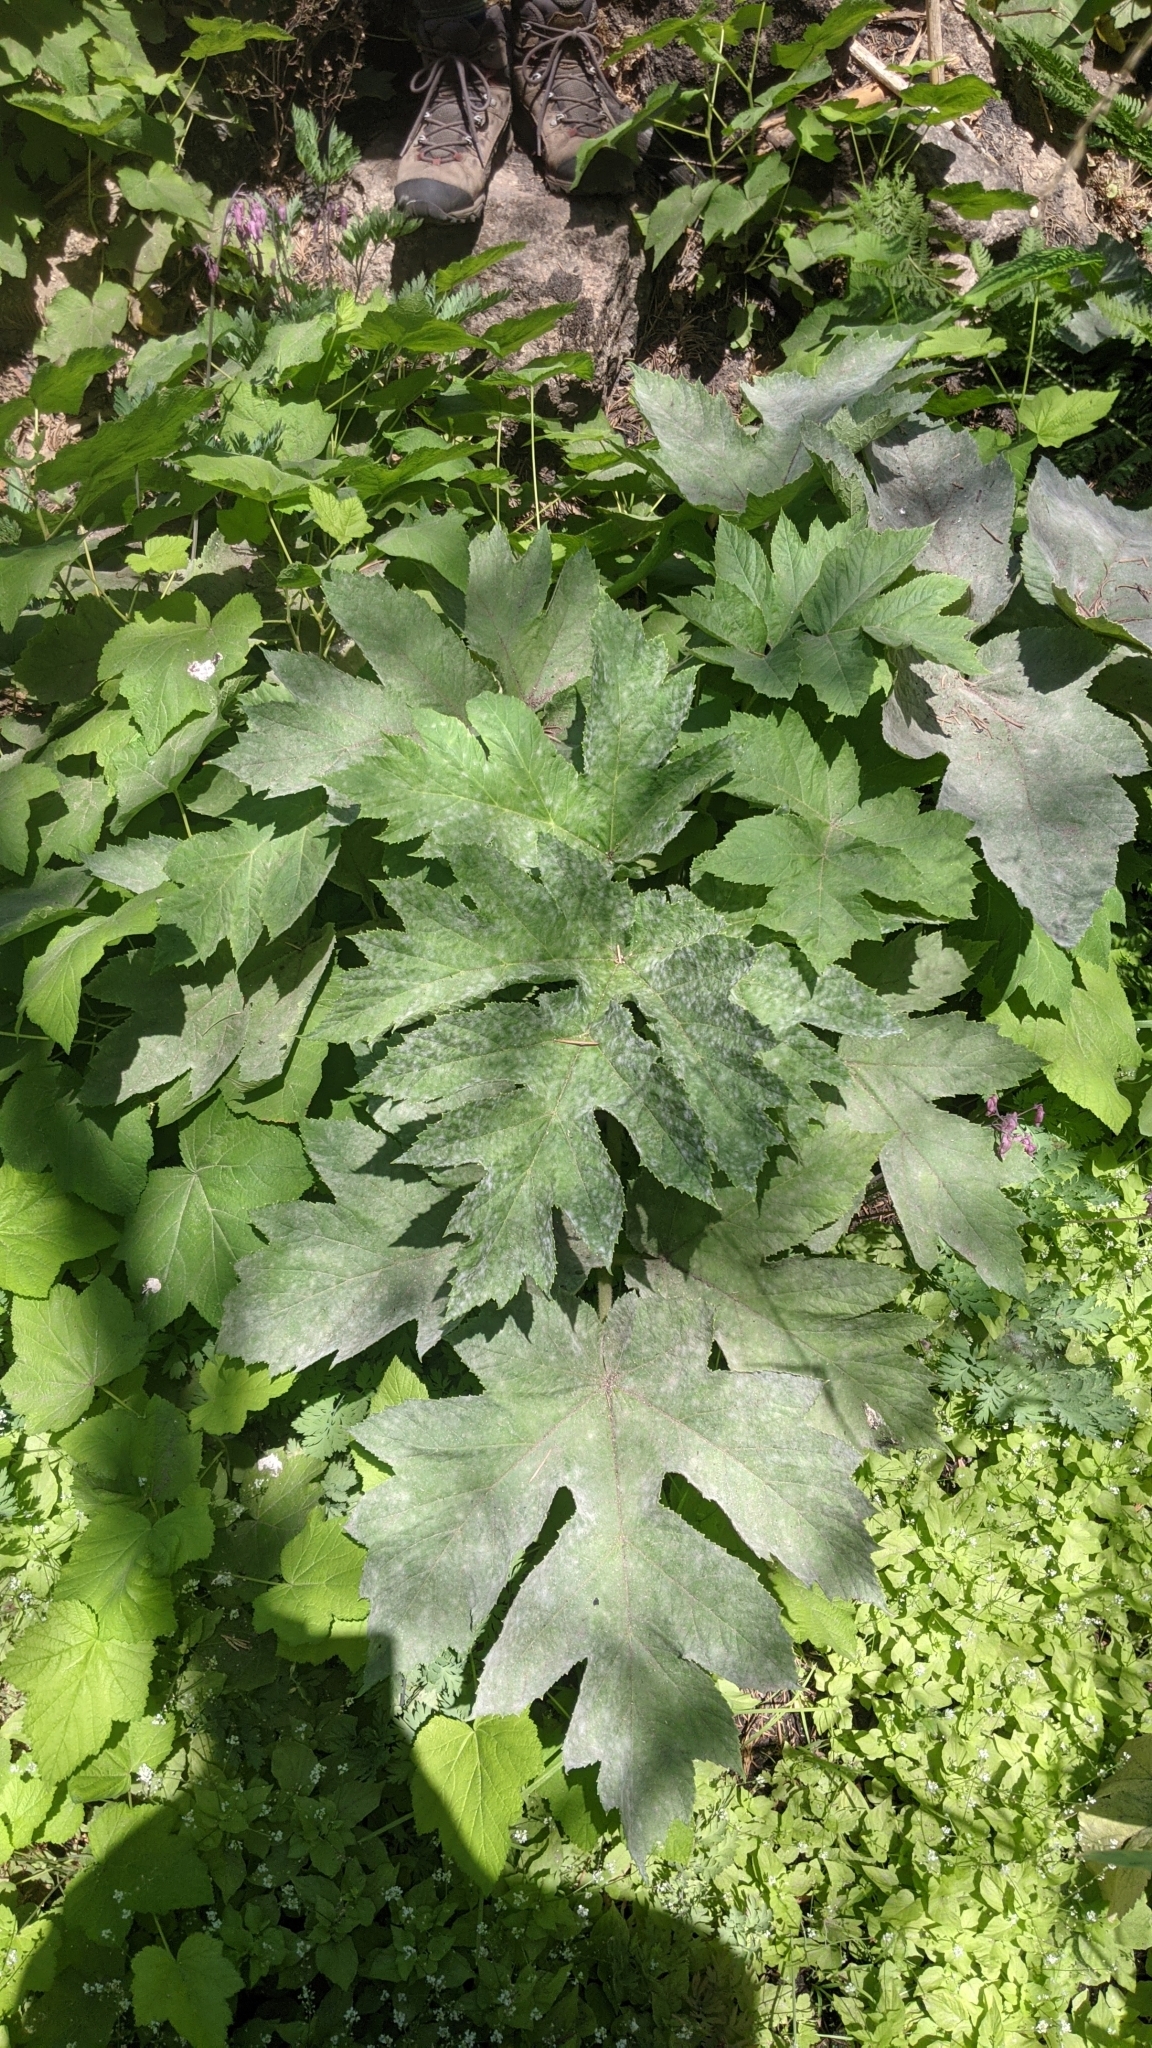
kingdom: Plantae
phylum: Tracheophyta
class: Magnoliopsida
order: Apiales
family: Apiaceae
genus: Heracleum
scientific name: Heracleum maximum
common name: American cow parsnip
